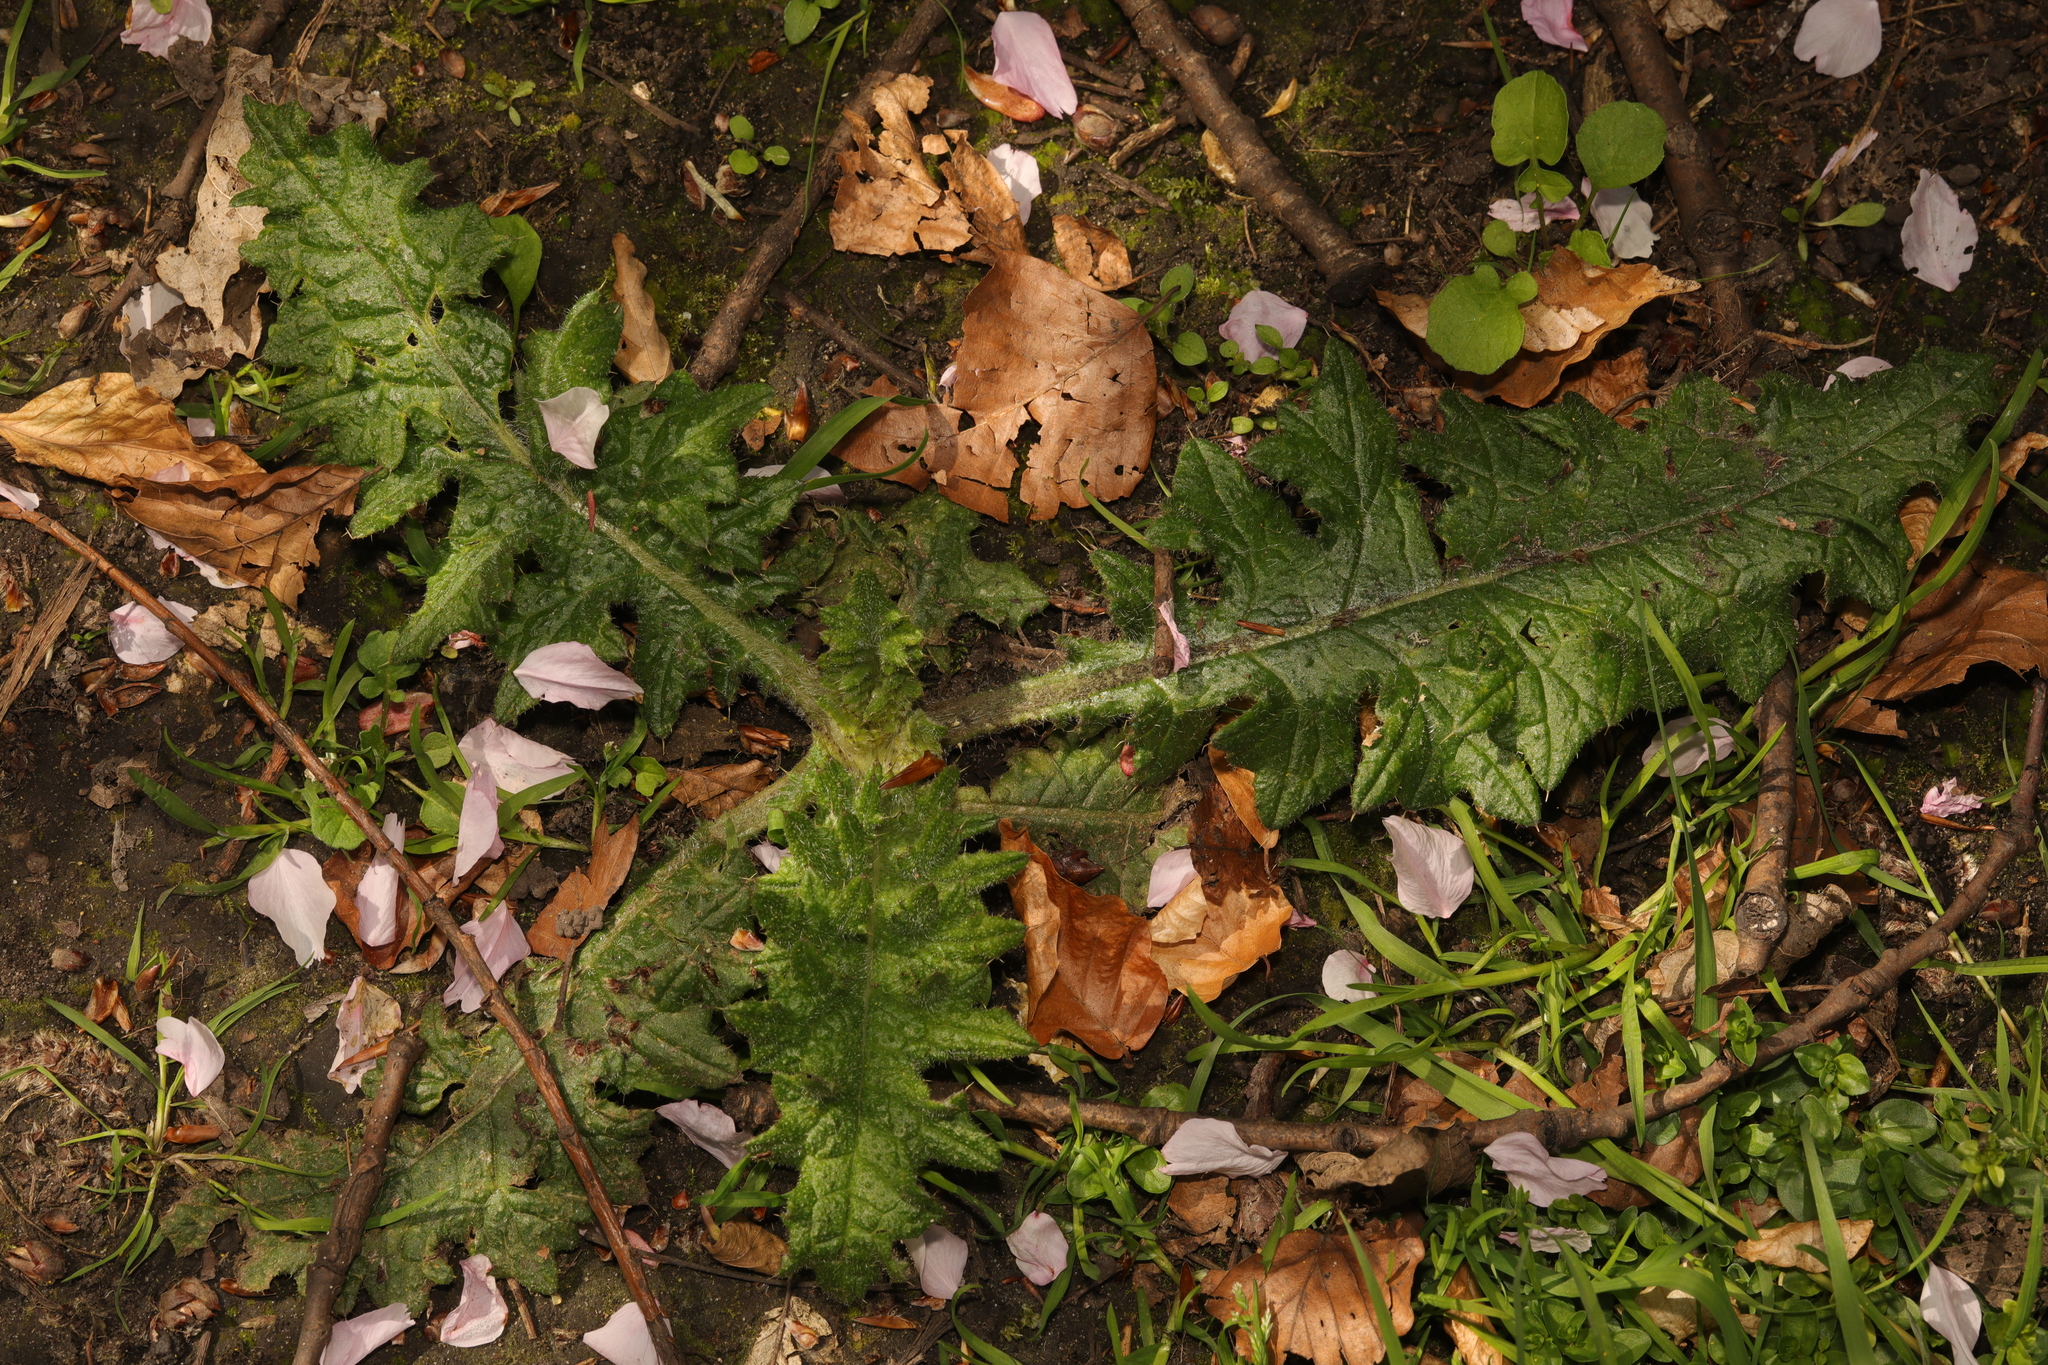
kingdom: Plantae
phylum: Tracheophyta
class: Magnoliopsida
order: Asterales
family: Asteraceae
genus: Cirsium
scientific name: Cirsium vulgare
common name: Bull thistle
